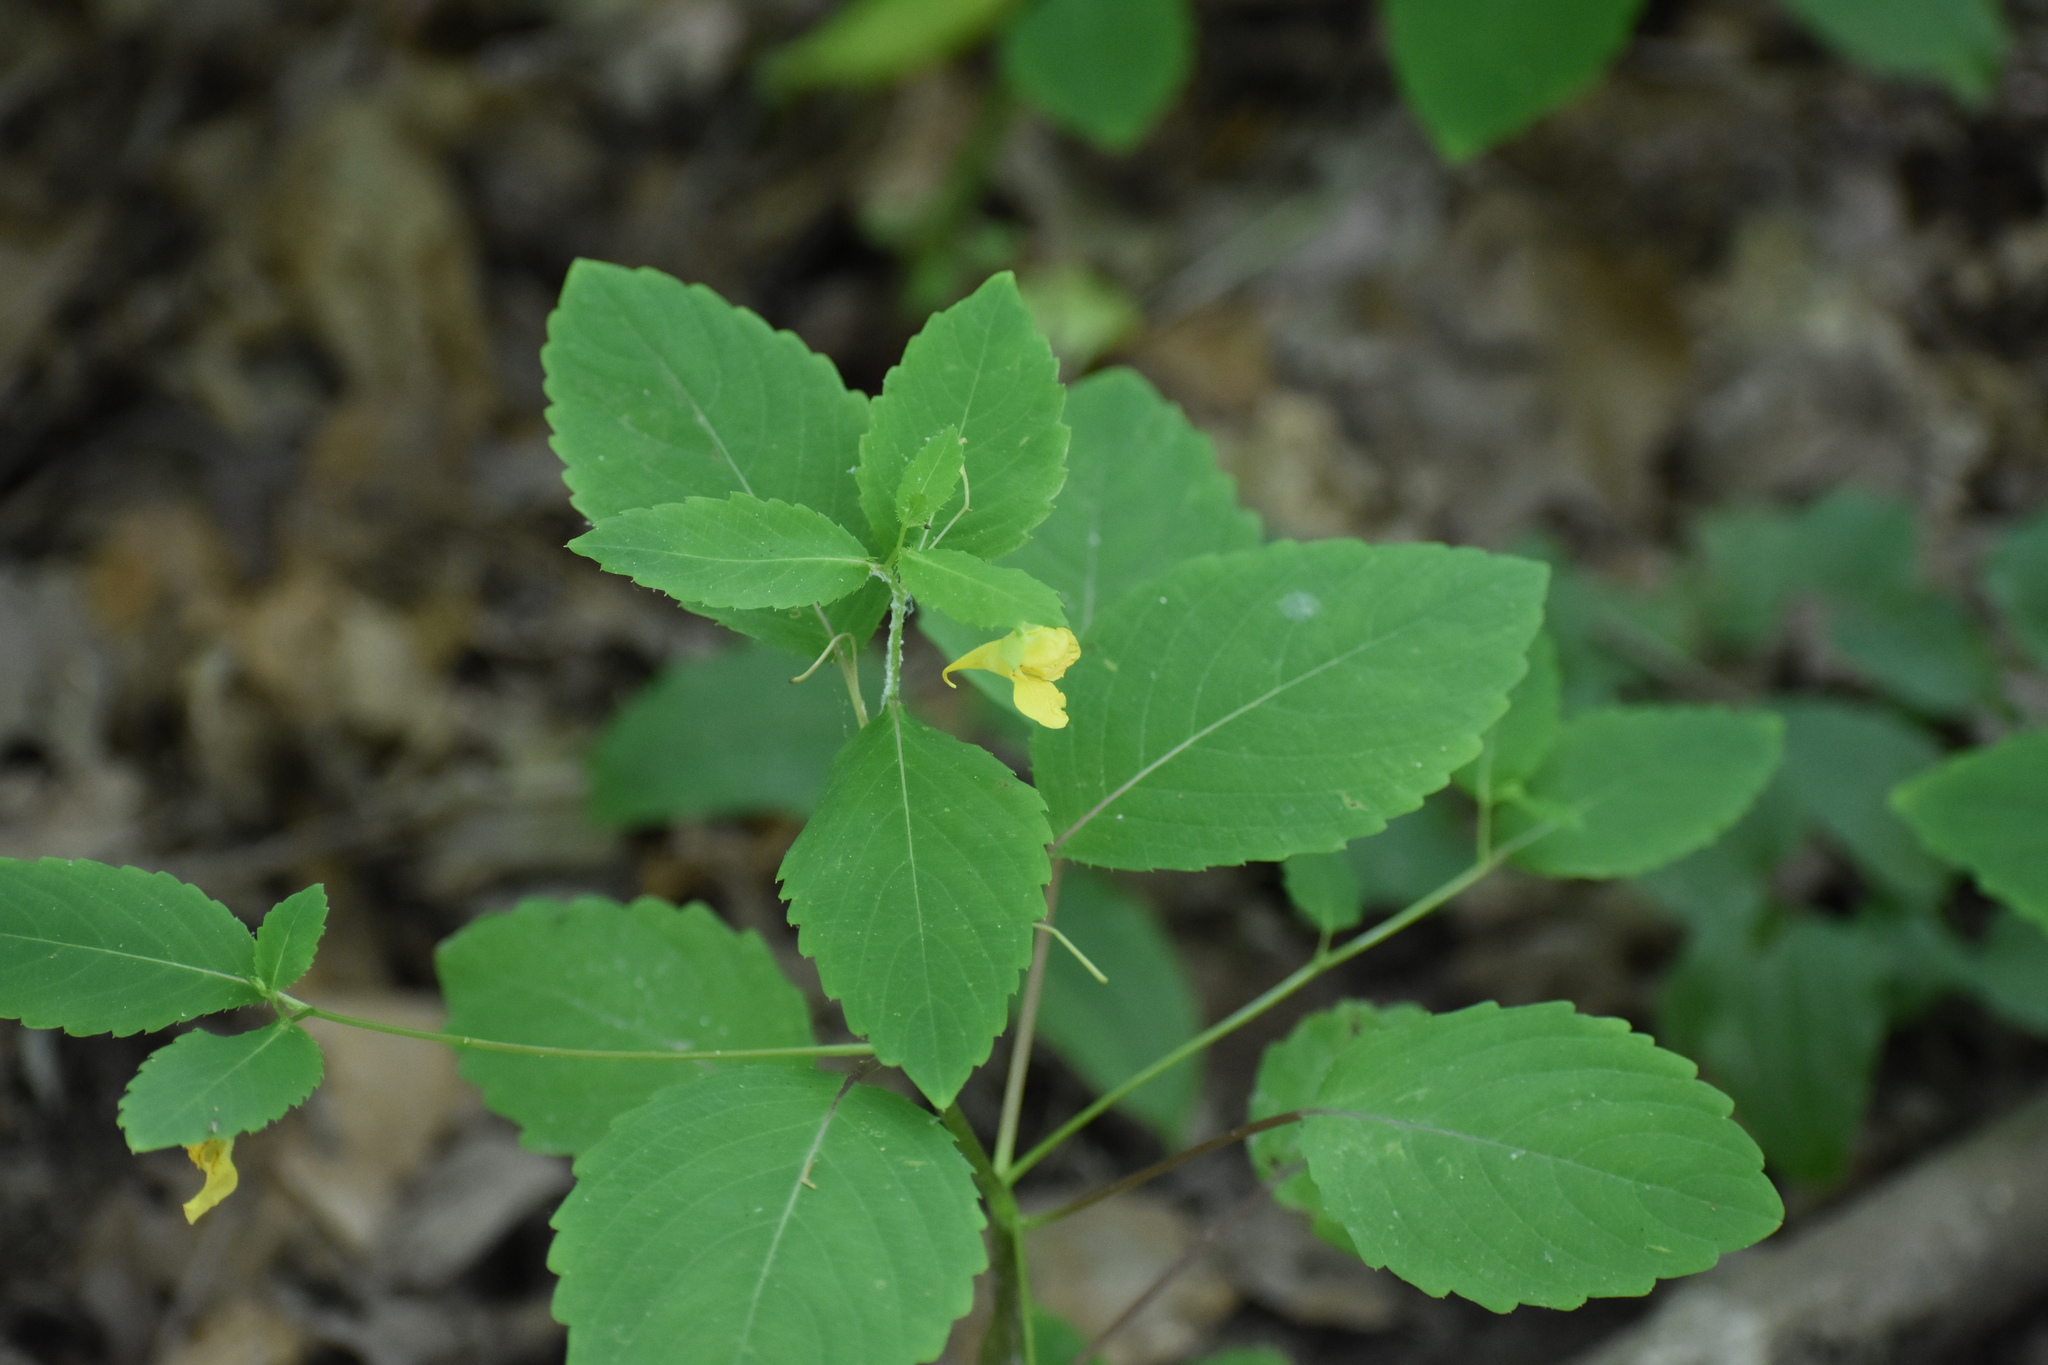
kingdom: Plantae
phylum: Tracheophyta
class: Magnoliopsida
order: Ericales
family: Balsaminaceae
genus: Impatiens
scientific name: Impatiens pallida
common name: Pale snapweed
